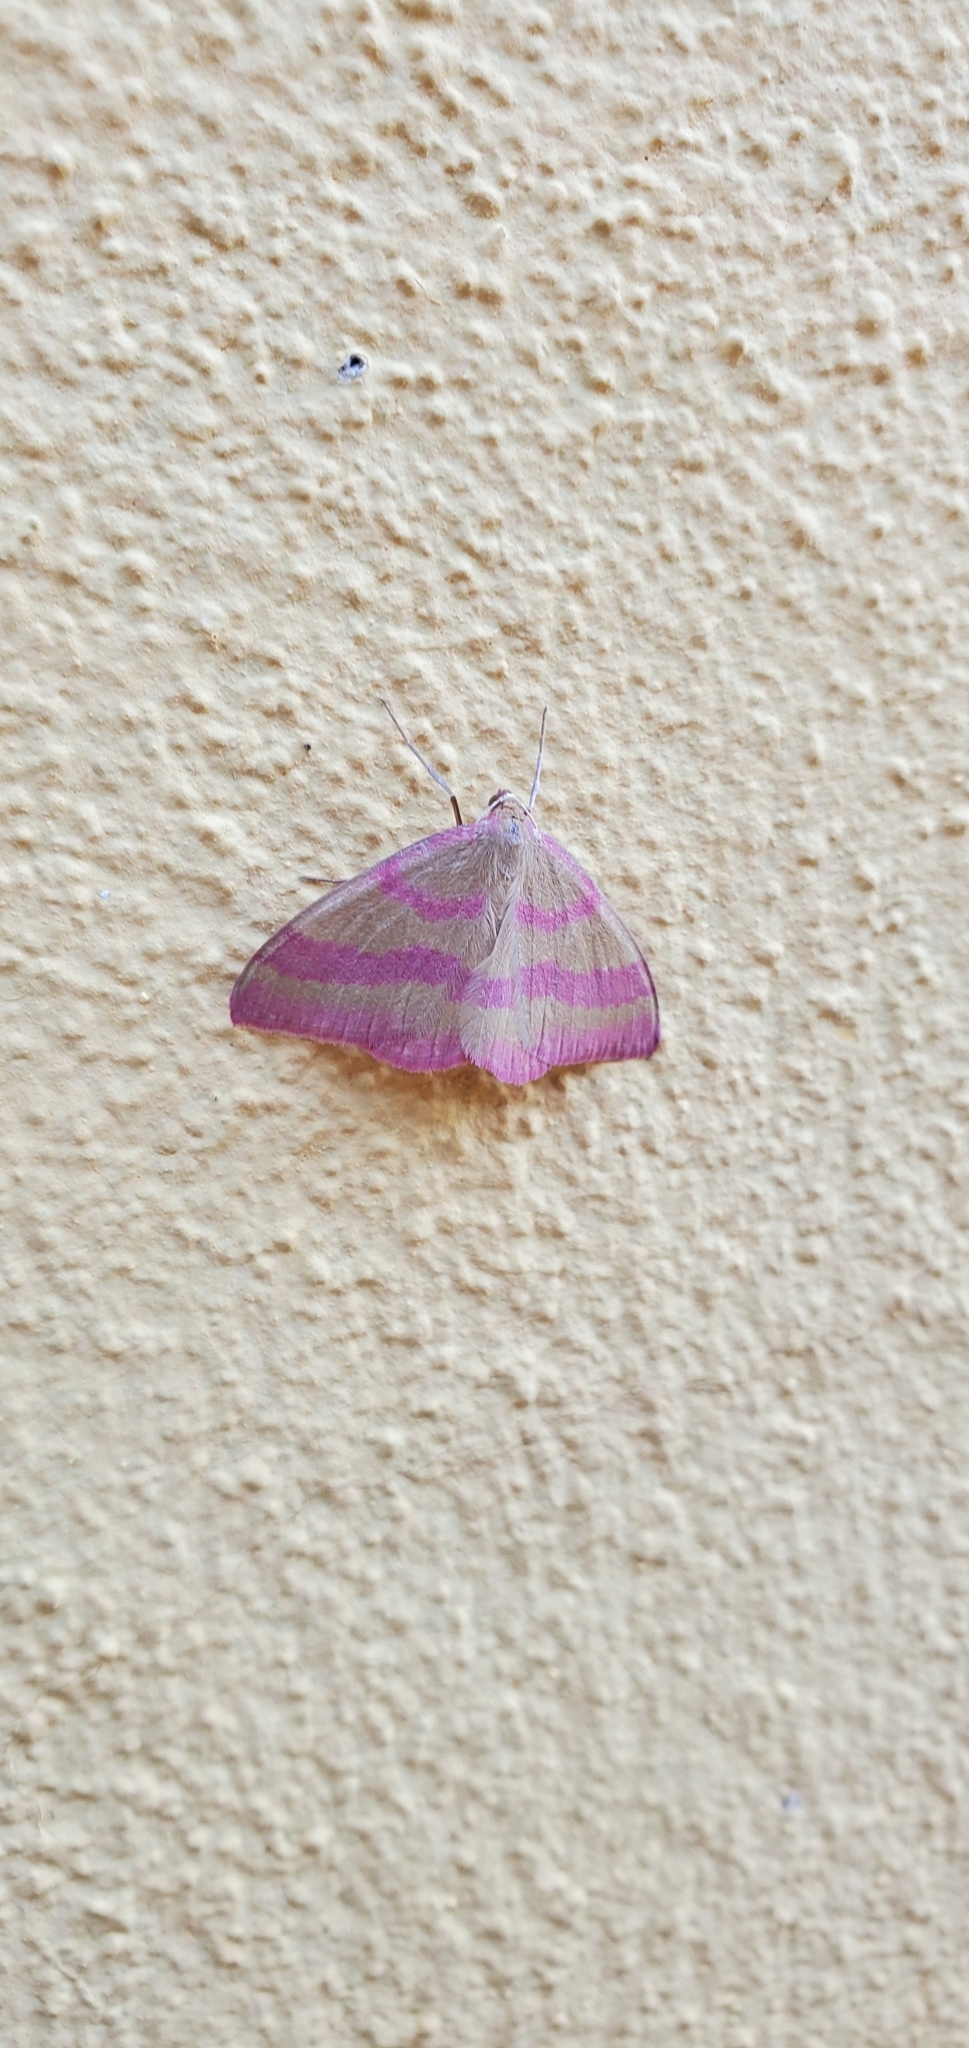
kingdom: Animalia
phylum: Arthropoda
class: Insecta
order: Lepidoptera
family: Geometridae
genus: Rhodostrophia
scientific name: Rhodostrophia calabra
